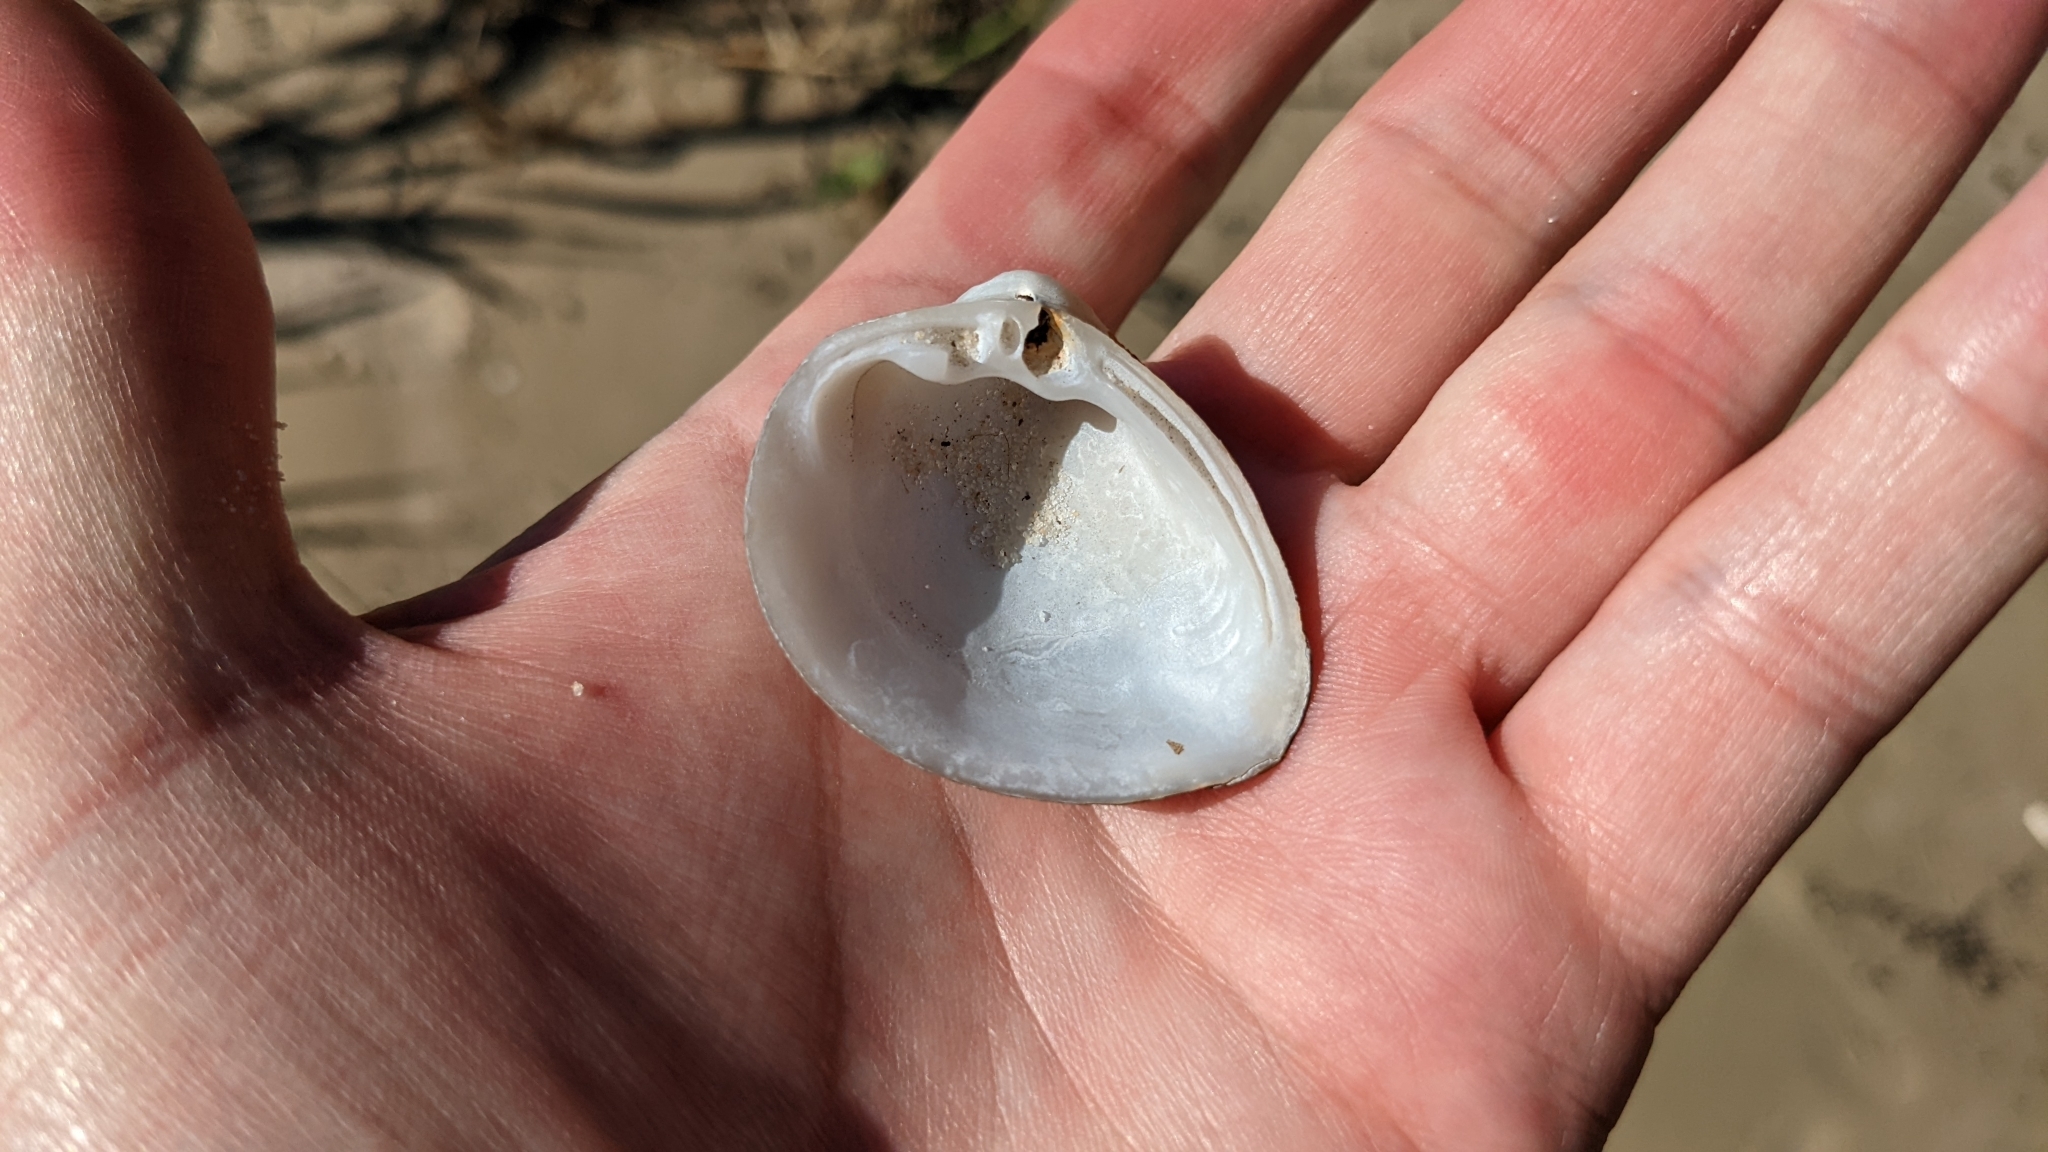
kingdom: Animalia
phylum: Mollusca
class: Bivalvia
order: Venerida
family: Mactridae
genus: Rangia
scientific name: Rangia cuneata
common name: Atlantic rangia
